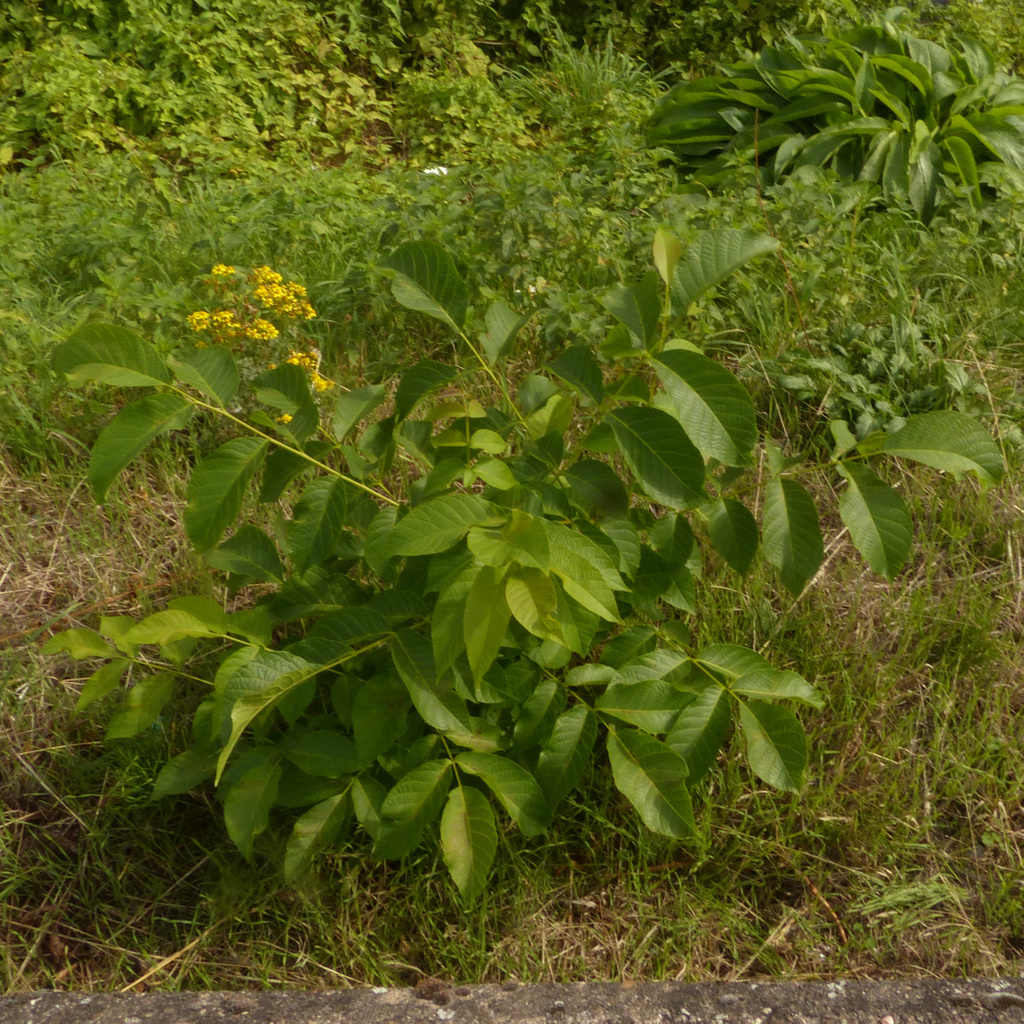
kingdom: Plantae
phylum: Tracheophyta
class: Magnoliopsida
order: Fagales
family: Juglandaceae
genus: Juglans
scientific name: Juglans regia
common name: Walnut
